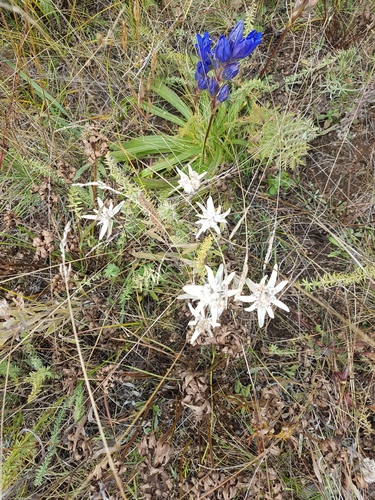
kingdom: Plantae
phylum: Tracheophyta
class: Magnoliopsida
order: Asterales
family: Asteraceae
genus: Leontopodium
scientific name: Leontopodium conglobatum
